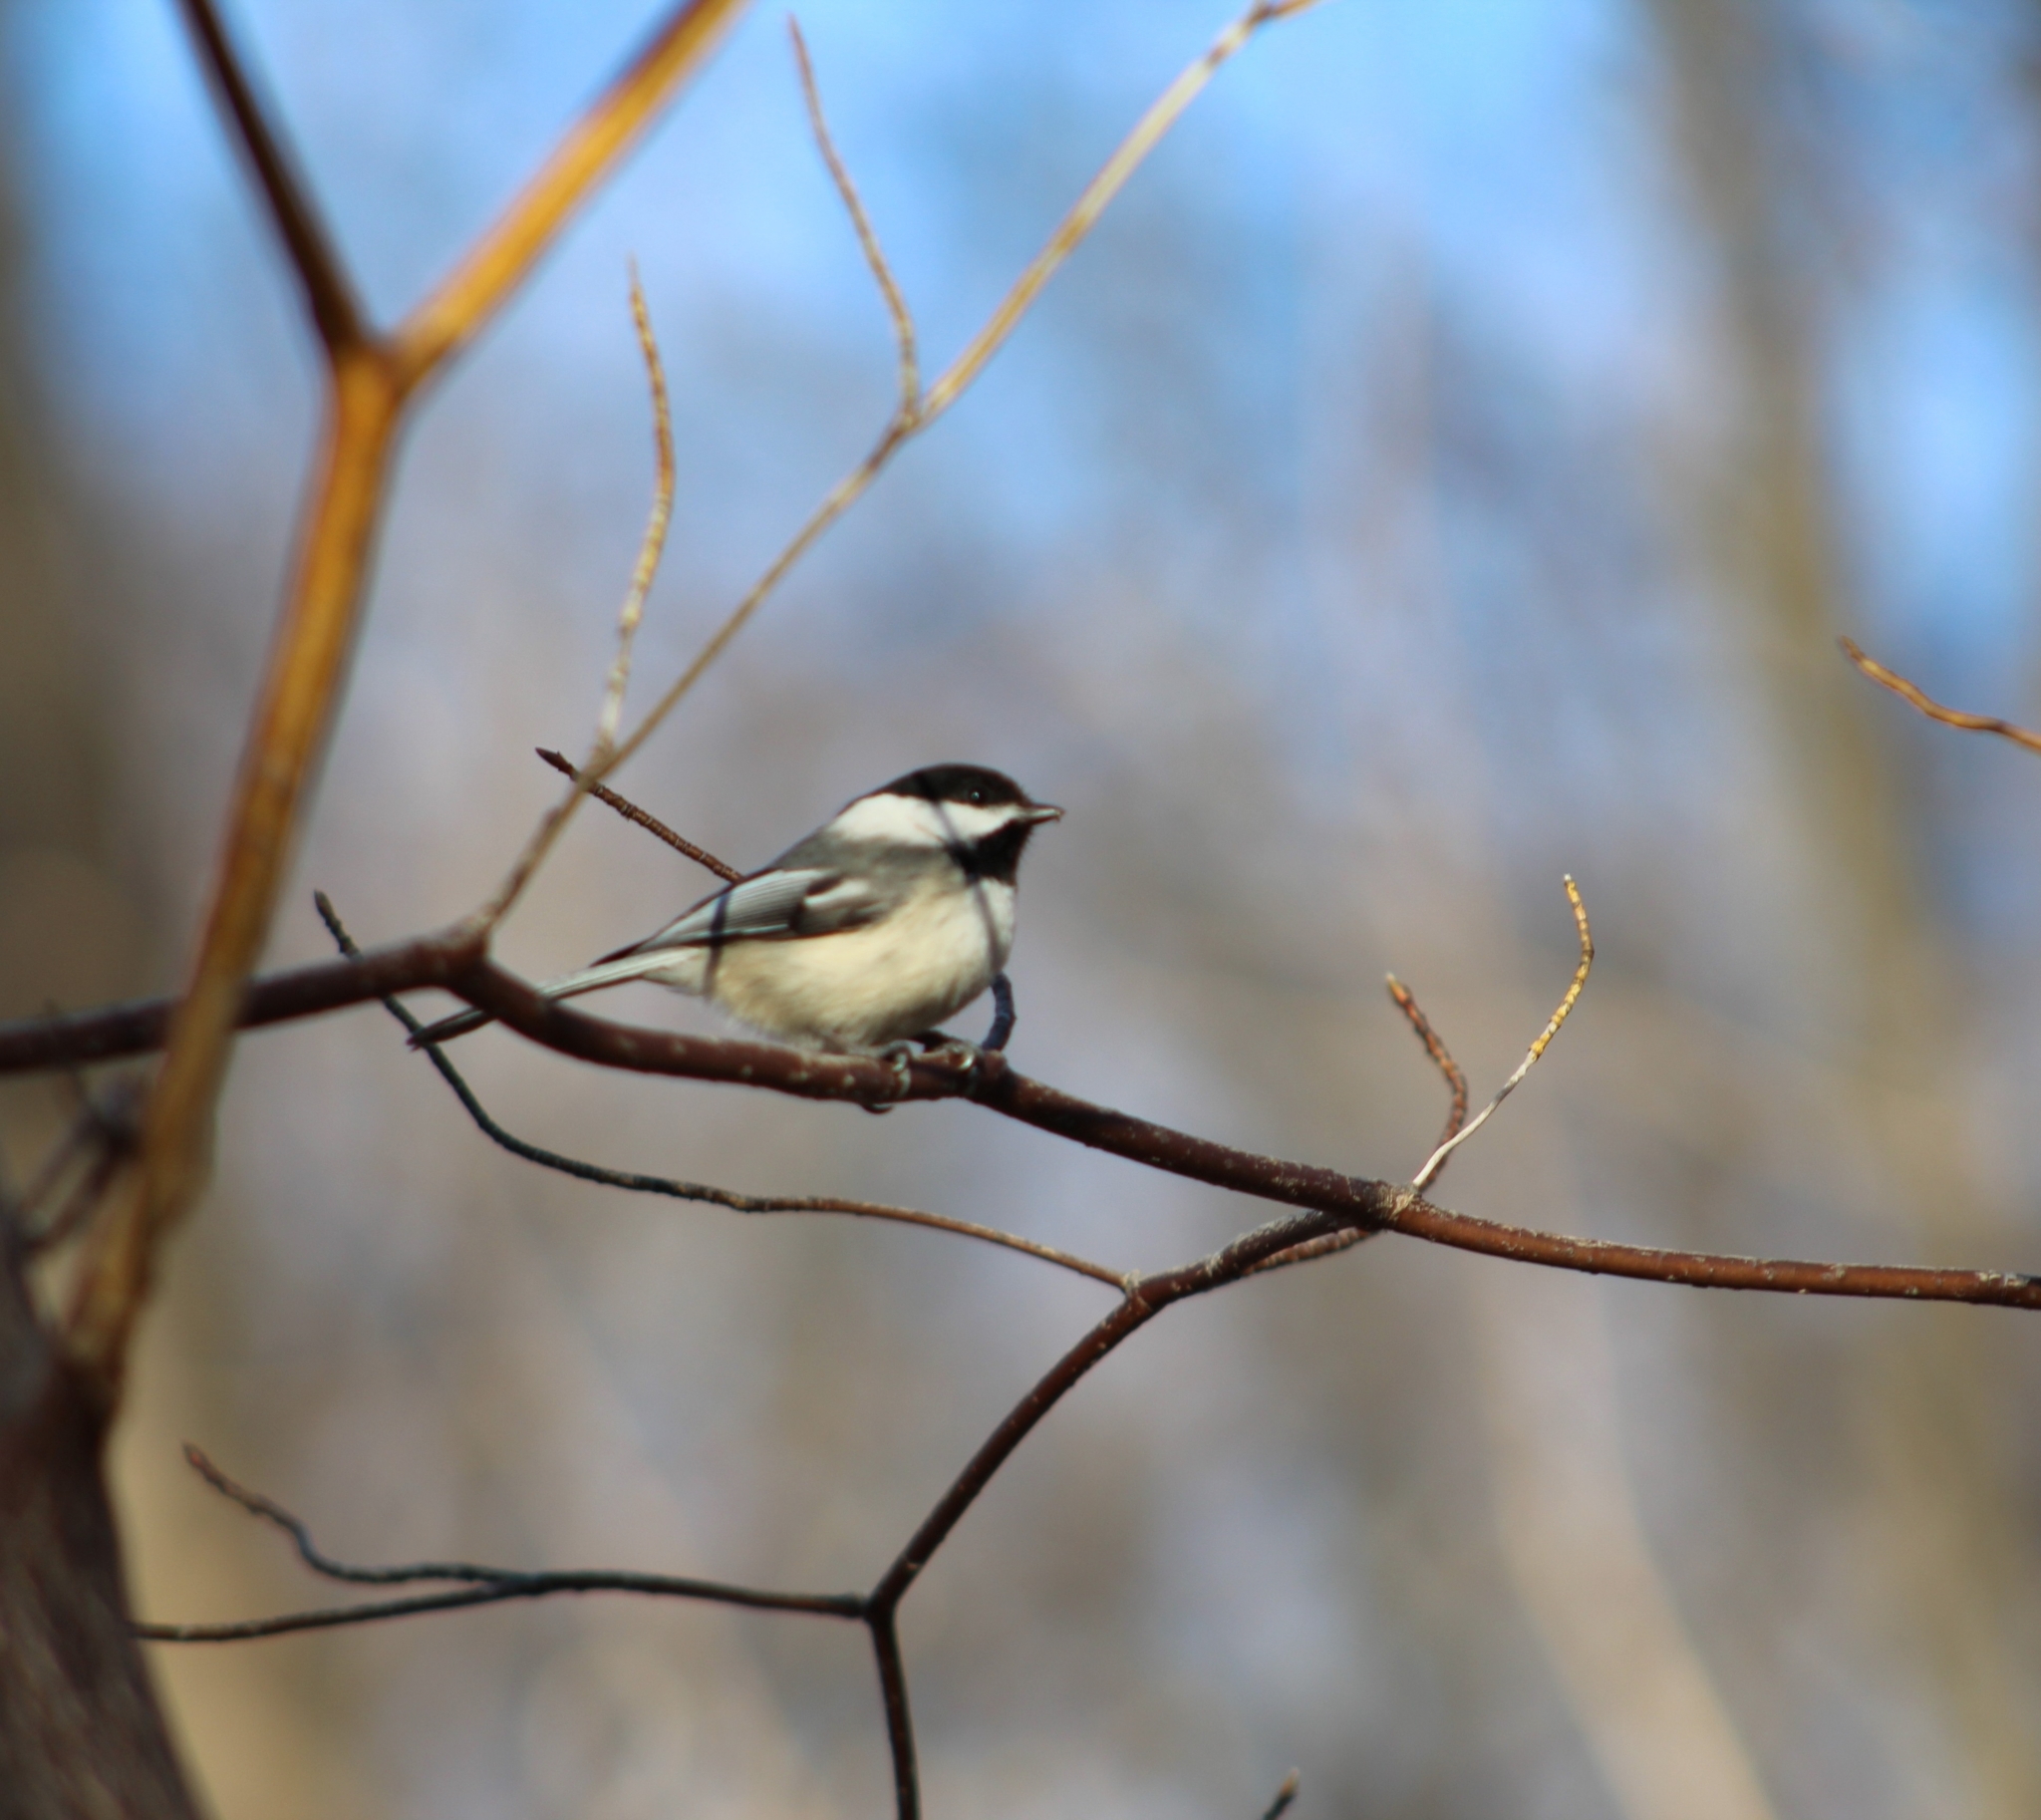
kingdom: Animalia
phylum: Chordata
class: Aves
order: Passeriformes
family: Paridae
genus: Poecile
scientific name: Poecile atricapillus
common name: Black-capped chickadee
